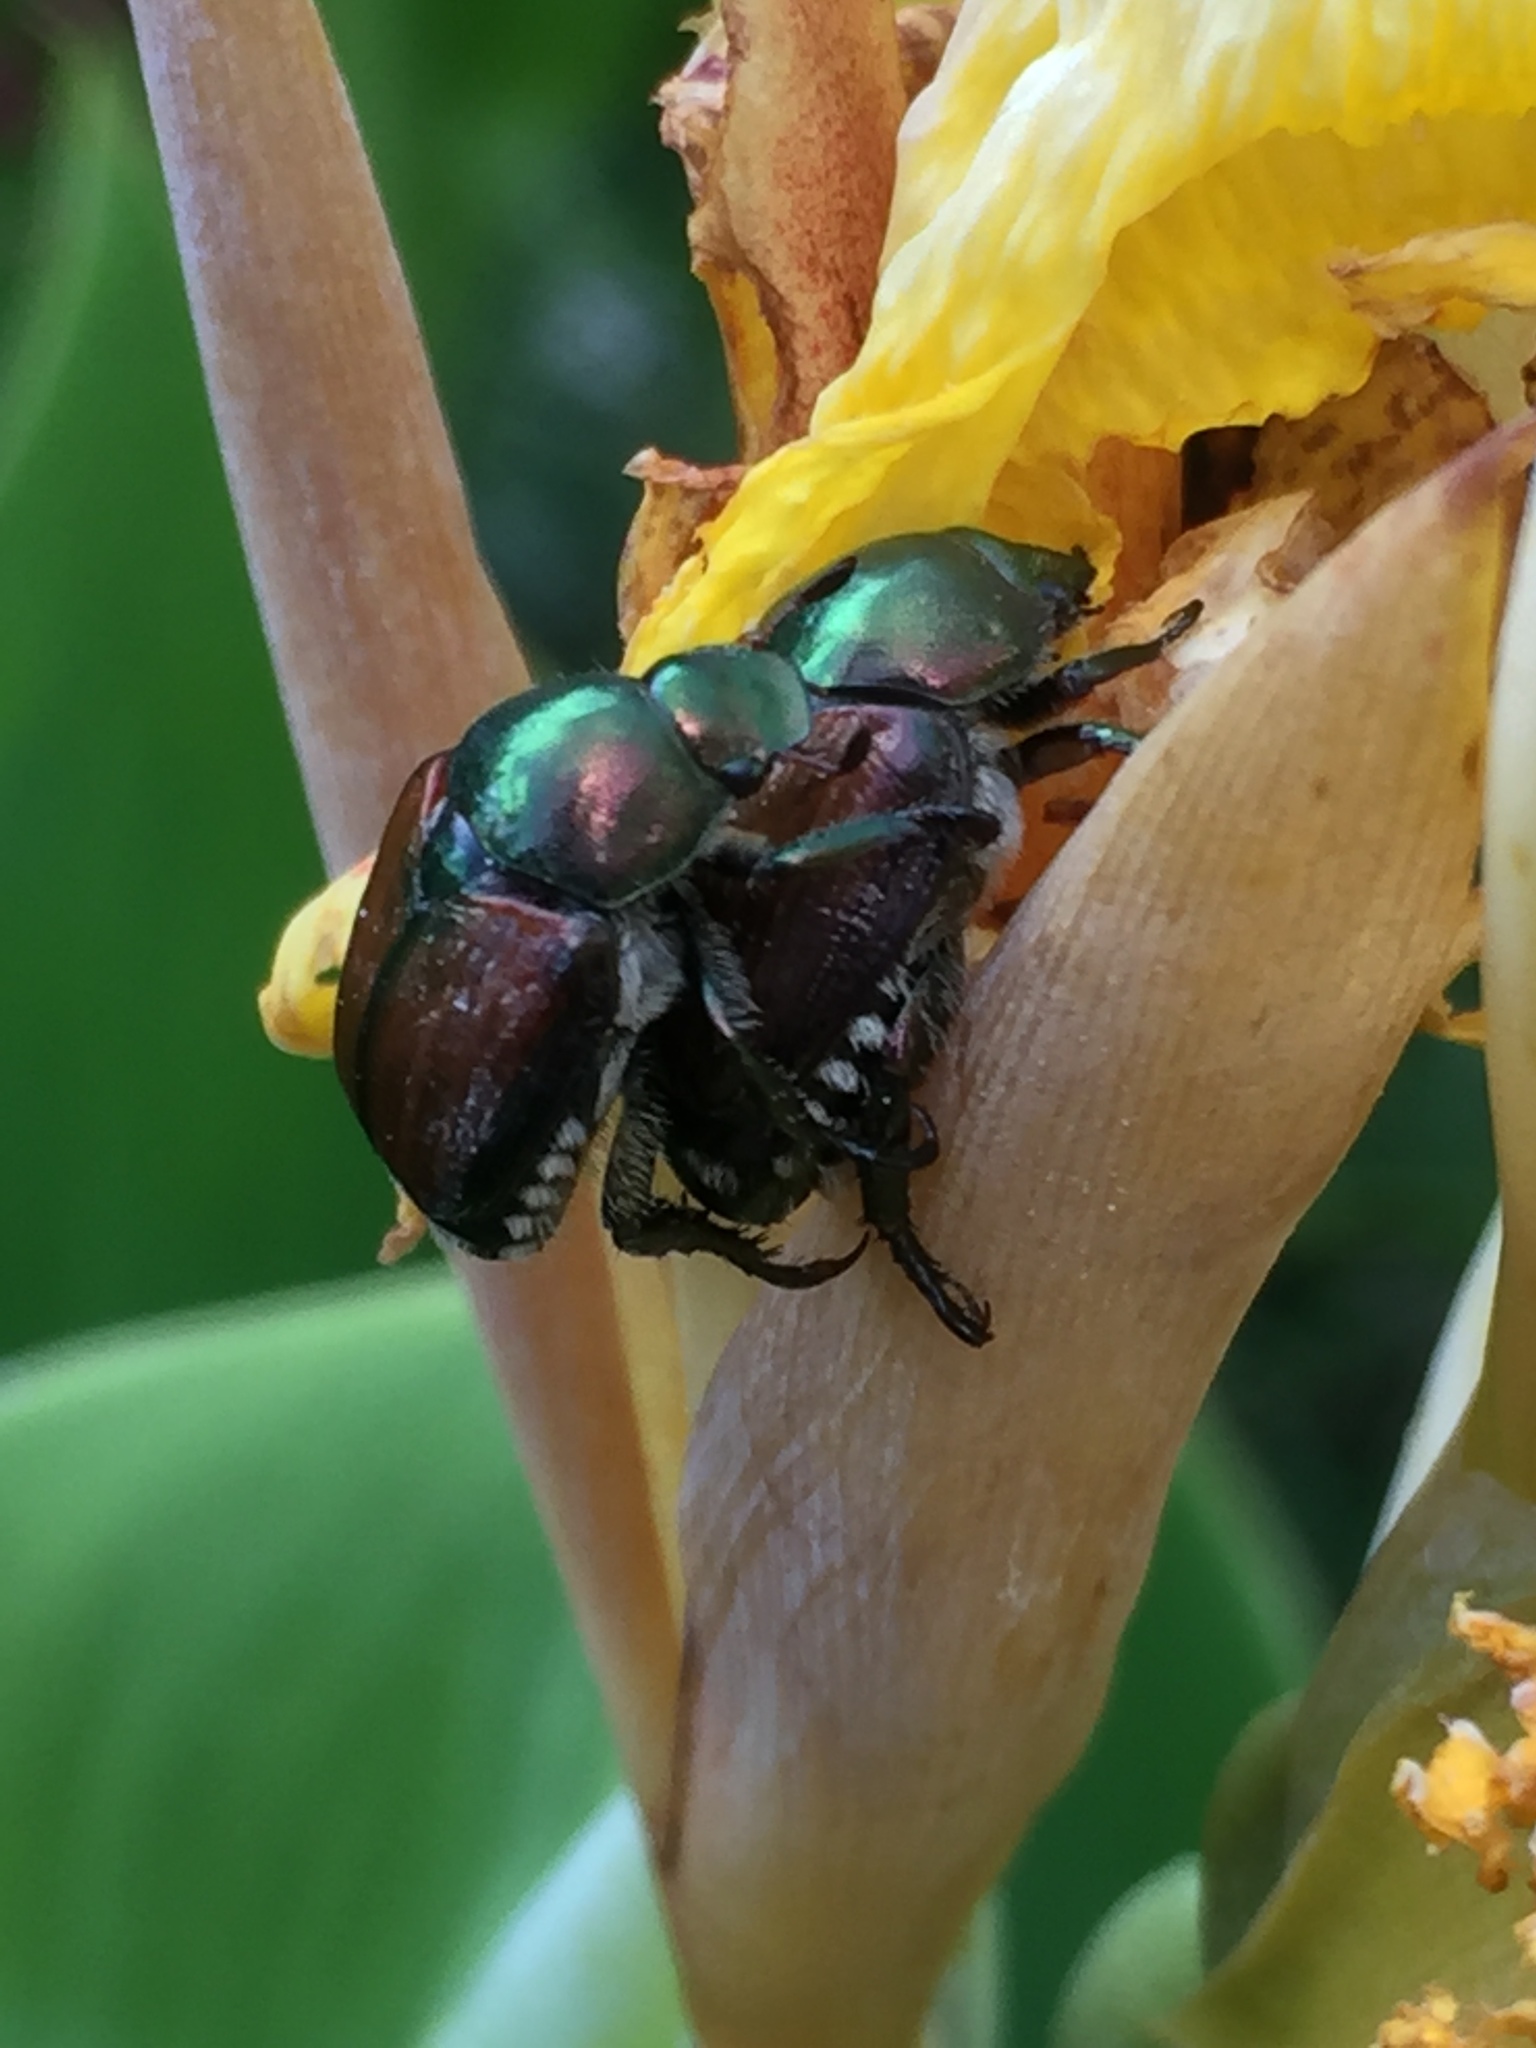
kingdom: Animalia
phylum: Arthropoda
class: Insecta
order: Coleoptera
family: Scarabaeidae
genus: Popillia
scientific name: Popillia japonica
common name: Japanese beetle
